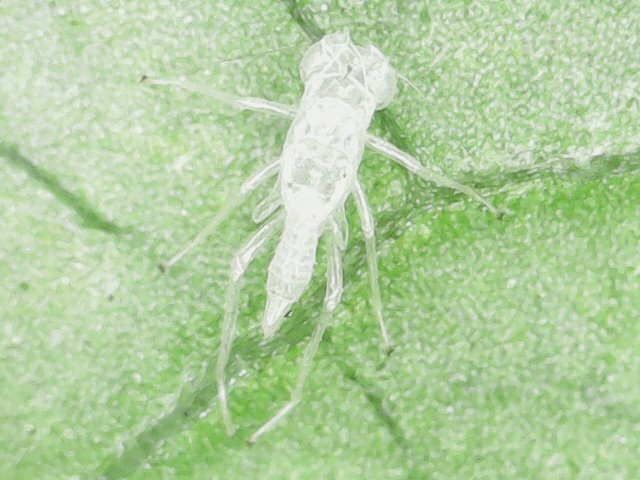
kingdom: Animalia
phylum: Arthropoda
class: Insecta
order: Hemiptera
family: Cicadellidae
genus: Amrasca
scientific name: Amrasca biguttula
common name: Indian cotton jassid
